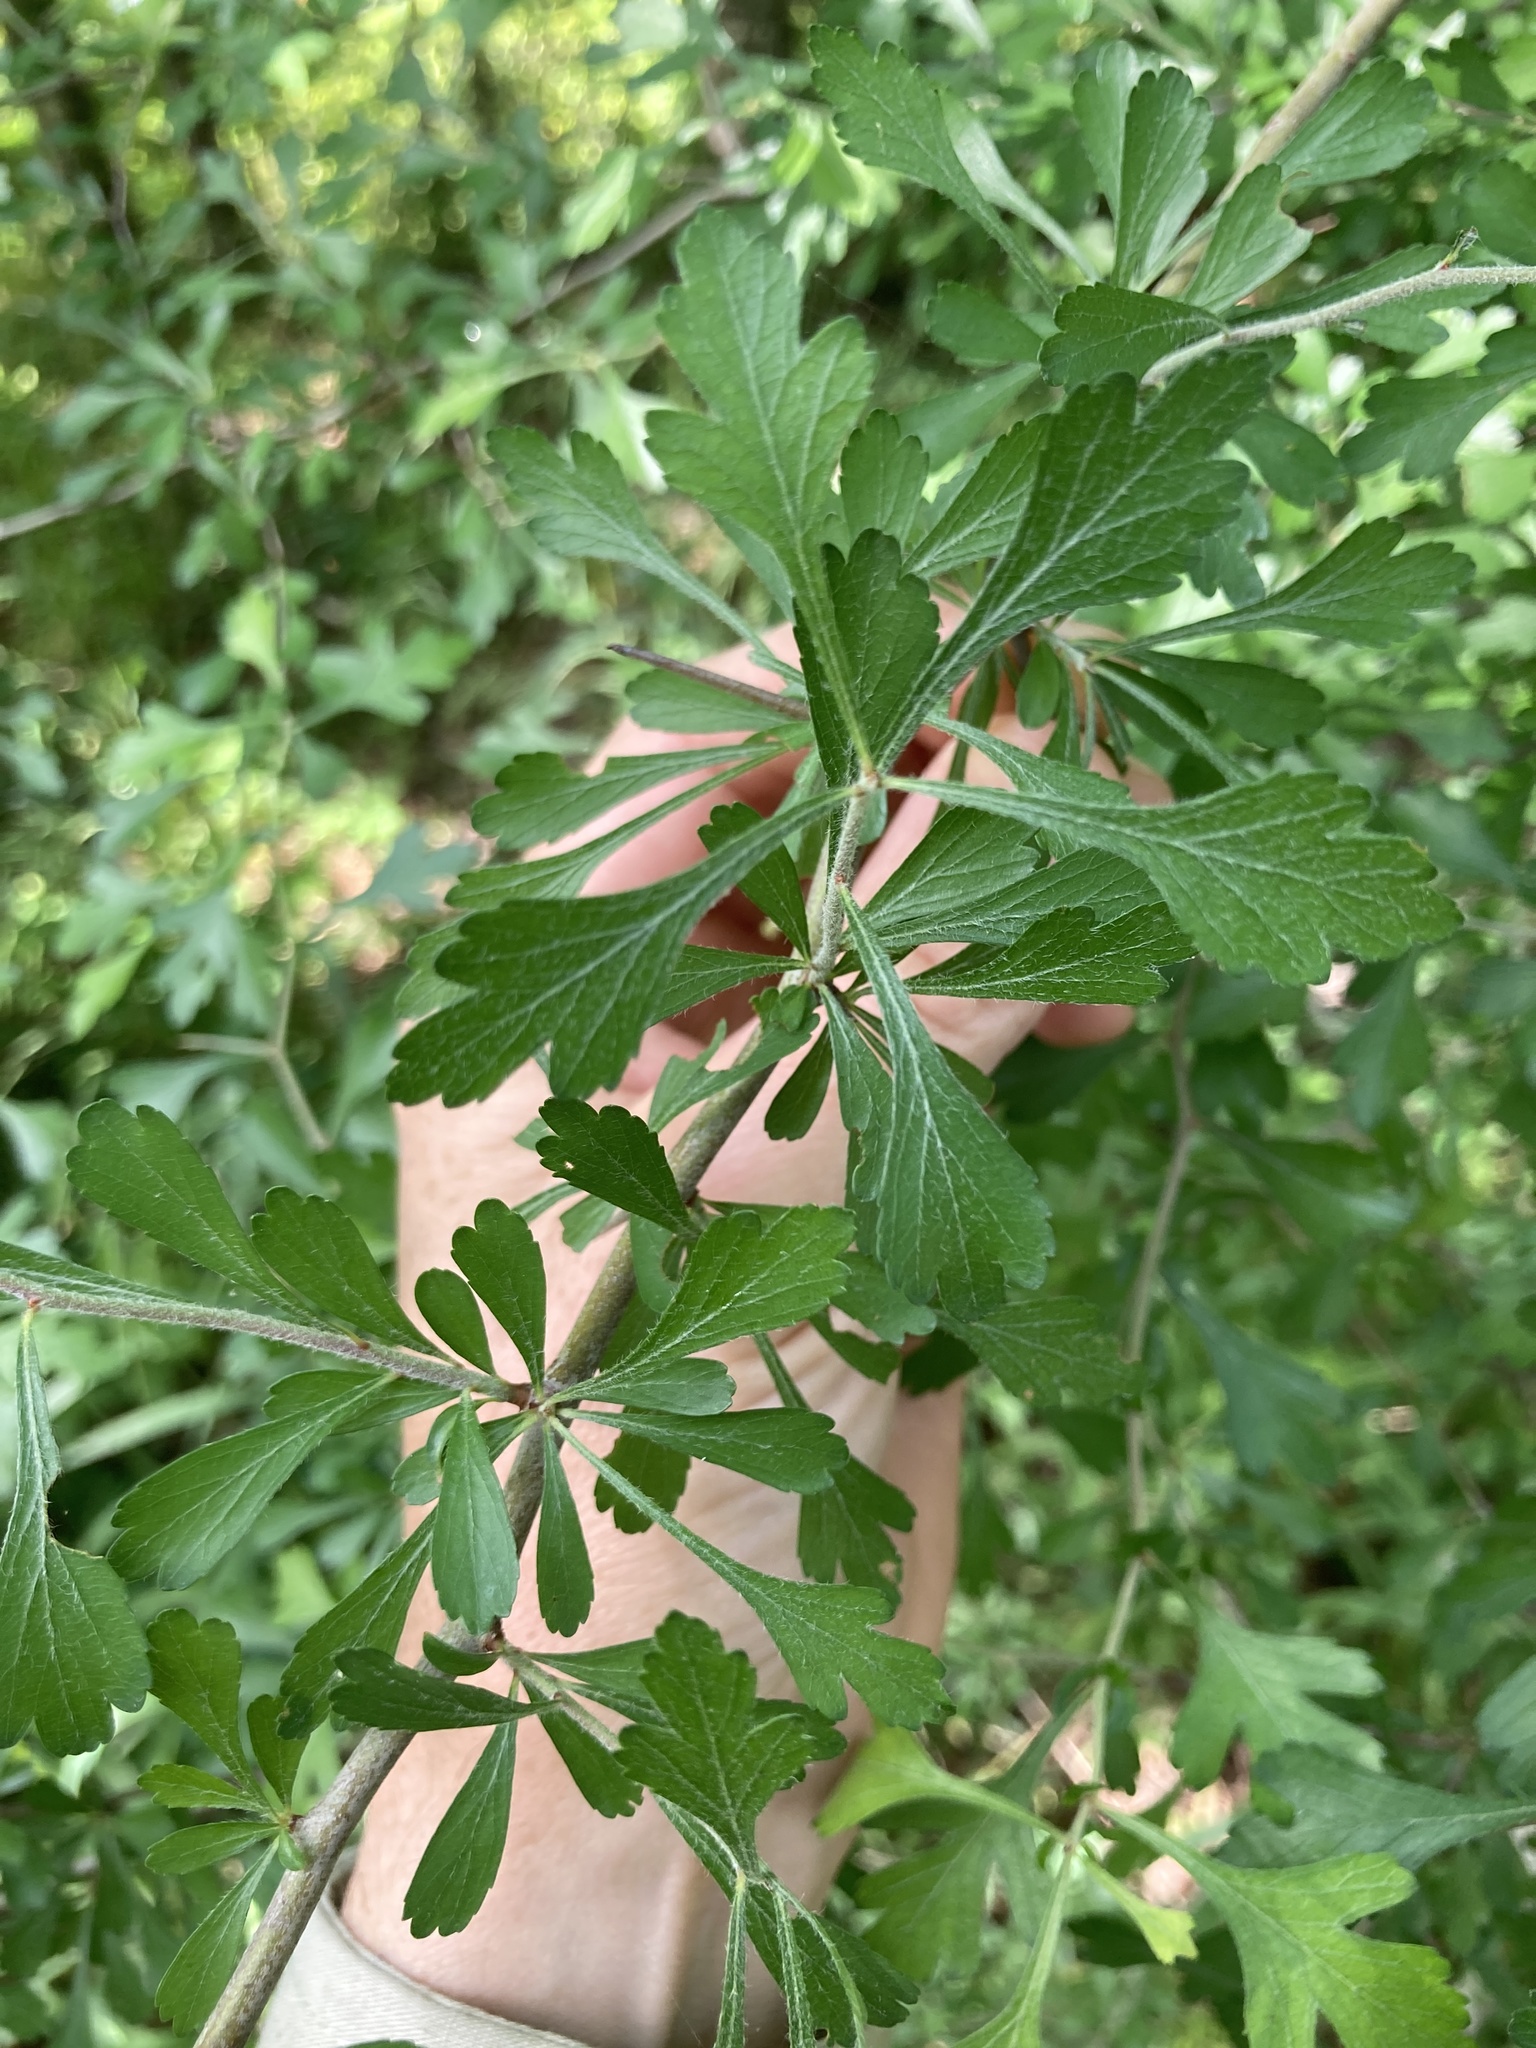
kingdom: Plantae
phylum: Tracheophyta
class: Magnoliopsida
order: Rosales
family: Rosaceae
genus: Crataegus
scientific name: Crataegus spathulata
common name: Littlehip hawthorn
